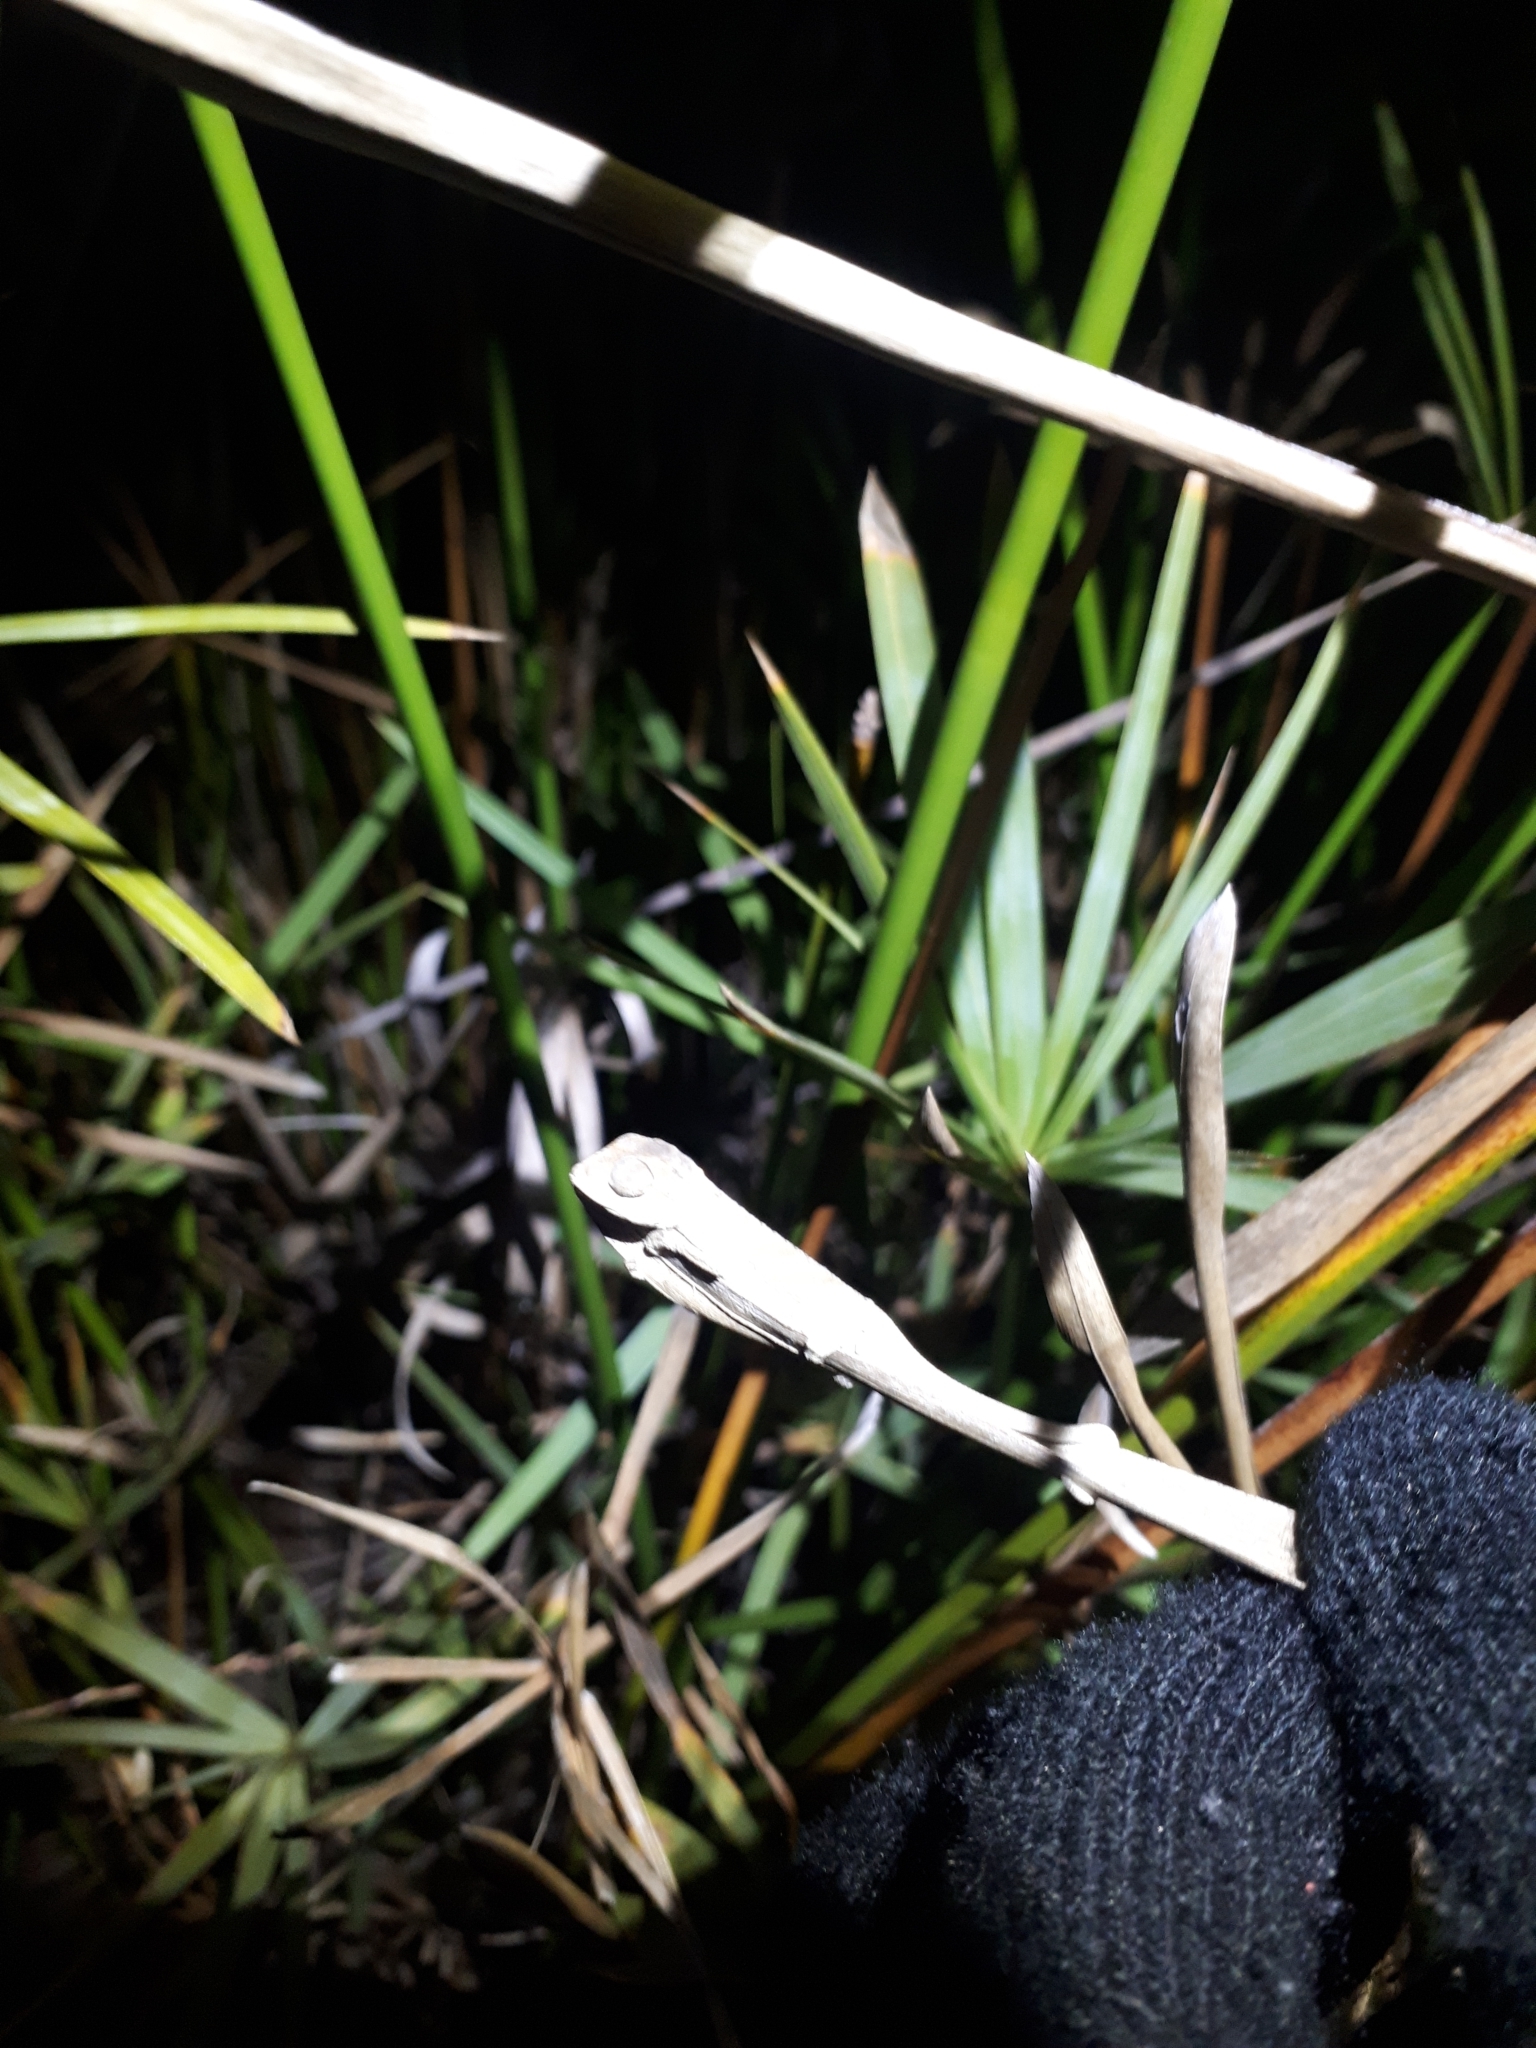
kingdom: Animalia
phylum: Chordata
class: Squamata
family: Chamaeleonidae
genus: Bradypodion
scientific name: Bradypodion pumilum
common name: Cape dwarf chameleon
